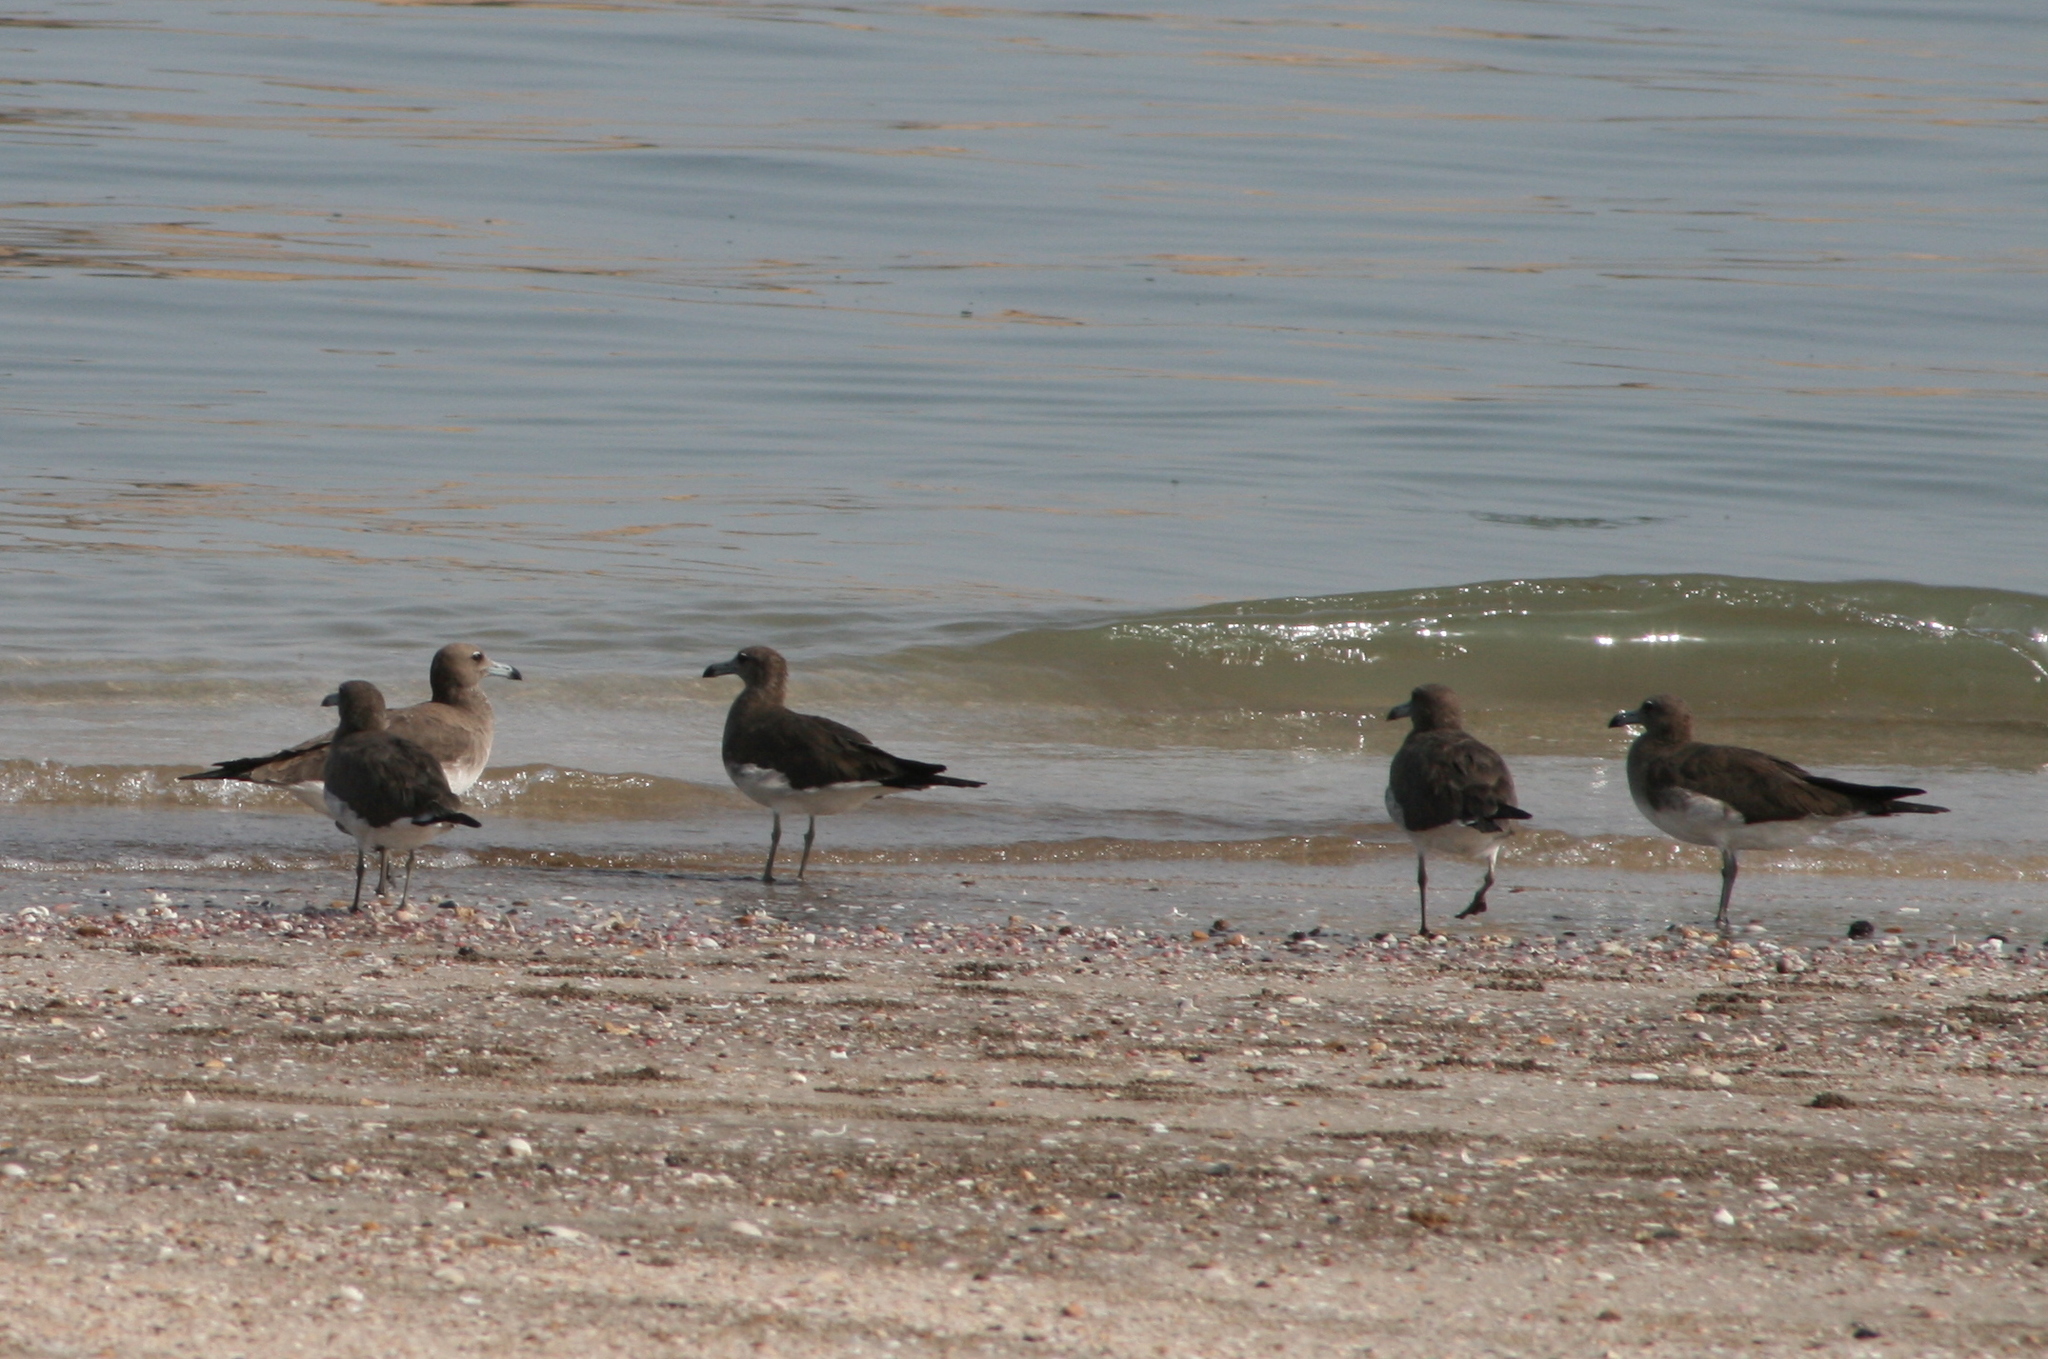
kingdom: Animalia
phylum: Chordata
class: Aves
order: Charadriiformes
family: Laridae
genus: Ichthyaetus
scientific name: Ichthyaetus hemprichii
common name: Sooty gull
